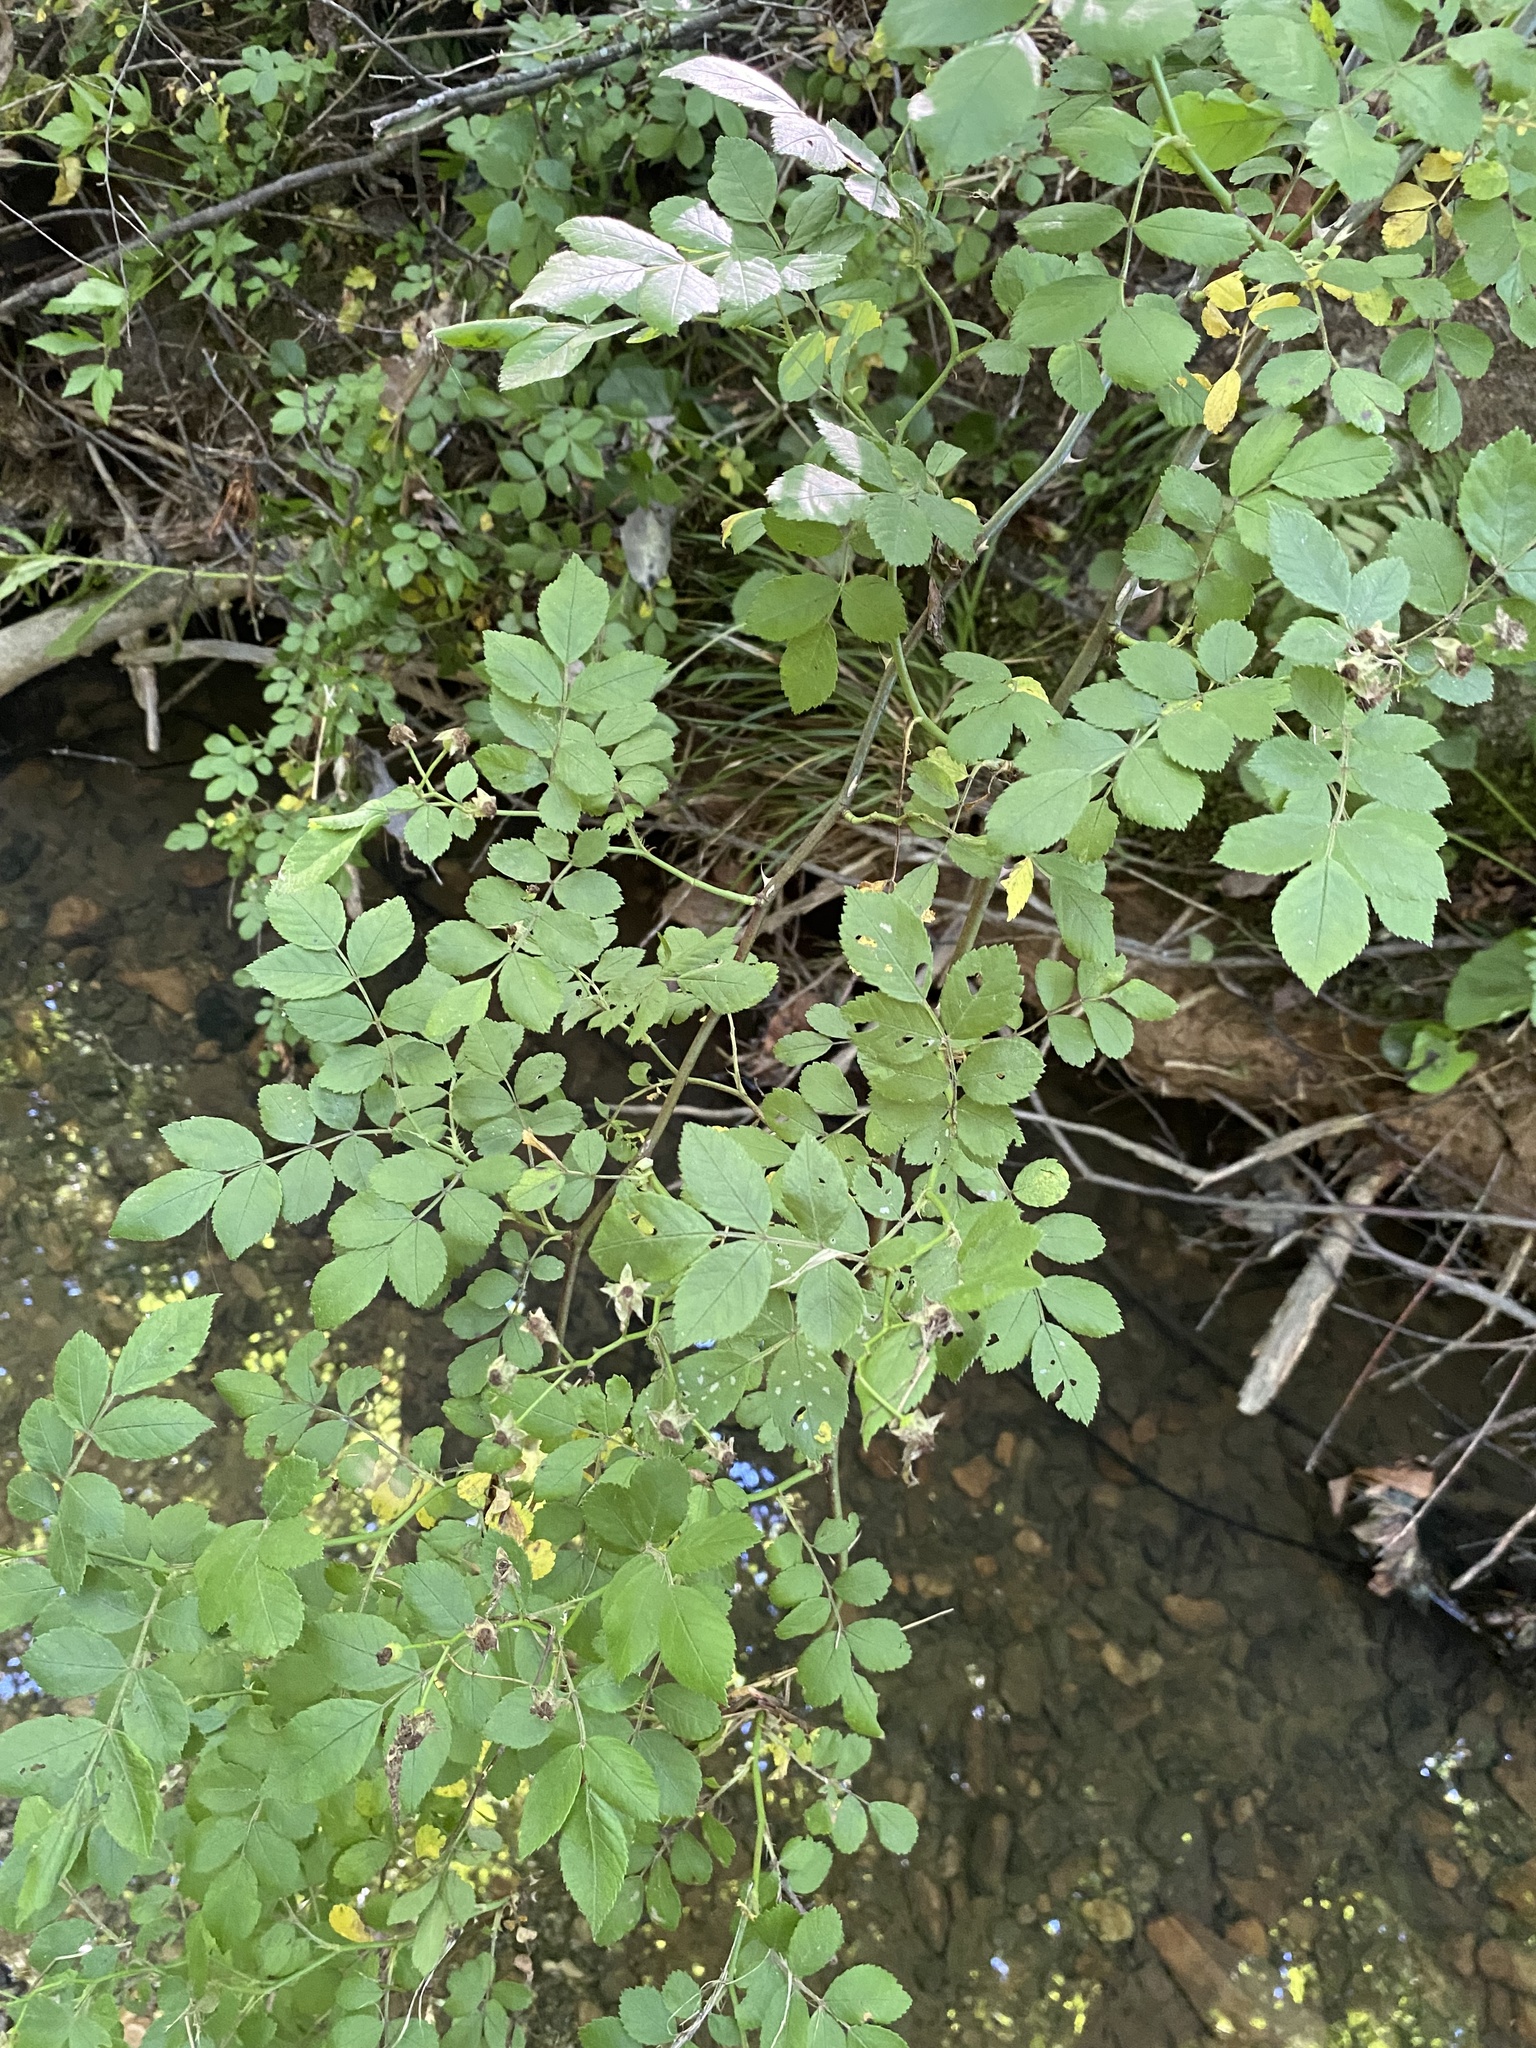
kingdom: Plantae
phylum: Tracheophyta
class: Magnoliopsida
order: Rosales
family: Rosaceae
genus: Rosa
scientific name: Rosa multiflora
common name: Multiflora rose
